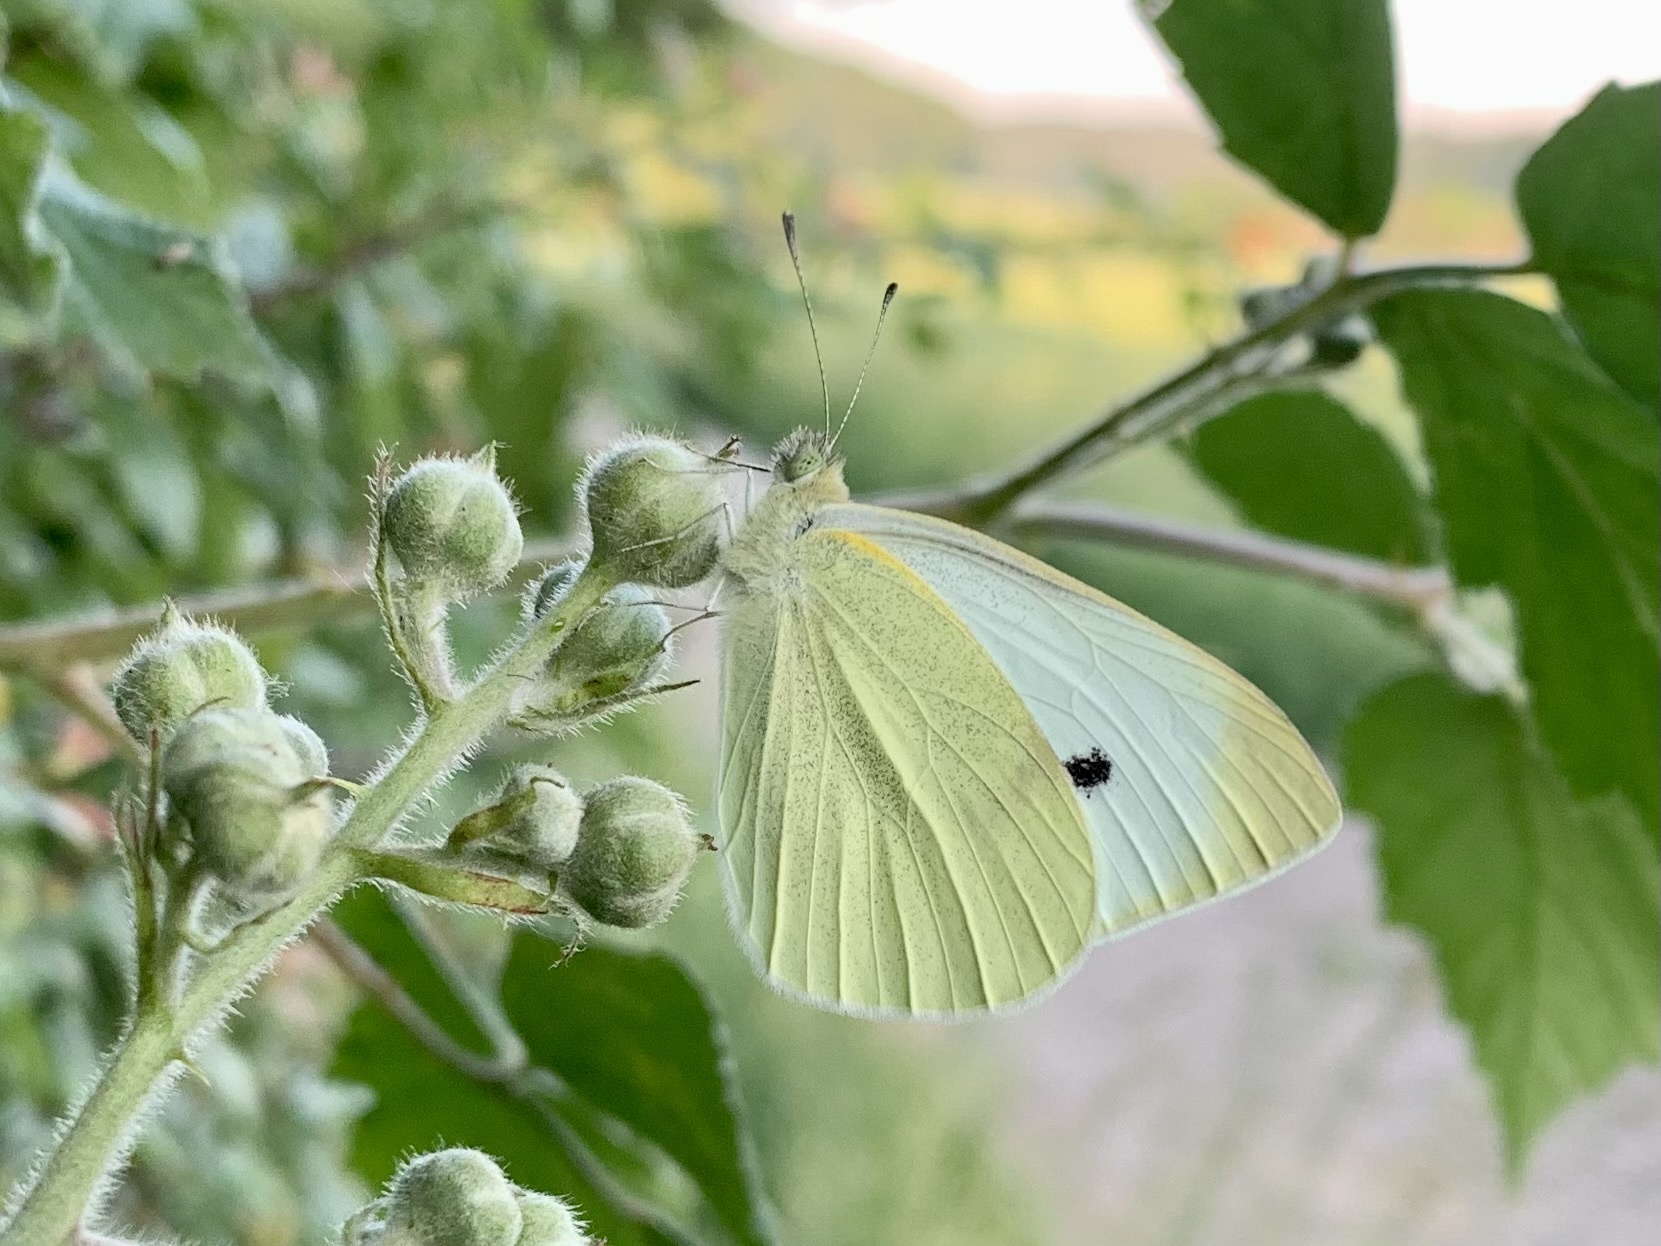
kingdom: Animalia
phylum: Arthropoda
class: Insecta
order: Lepidoptera
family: Pieridae
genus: Pieris
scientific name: Pieris rapae
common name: Small white
